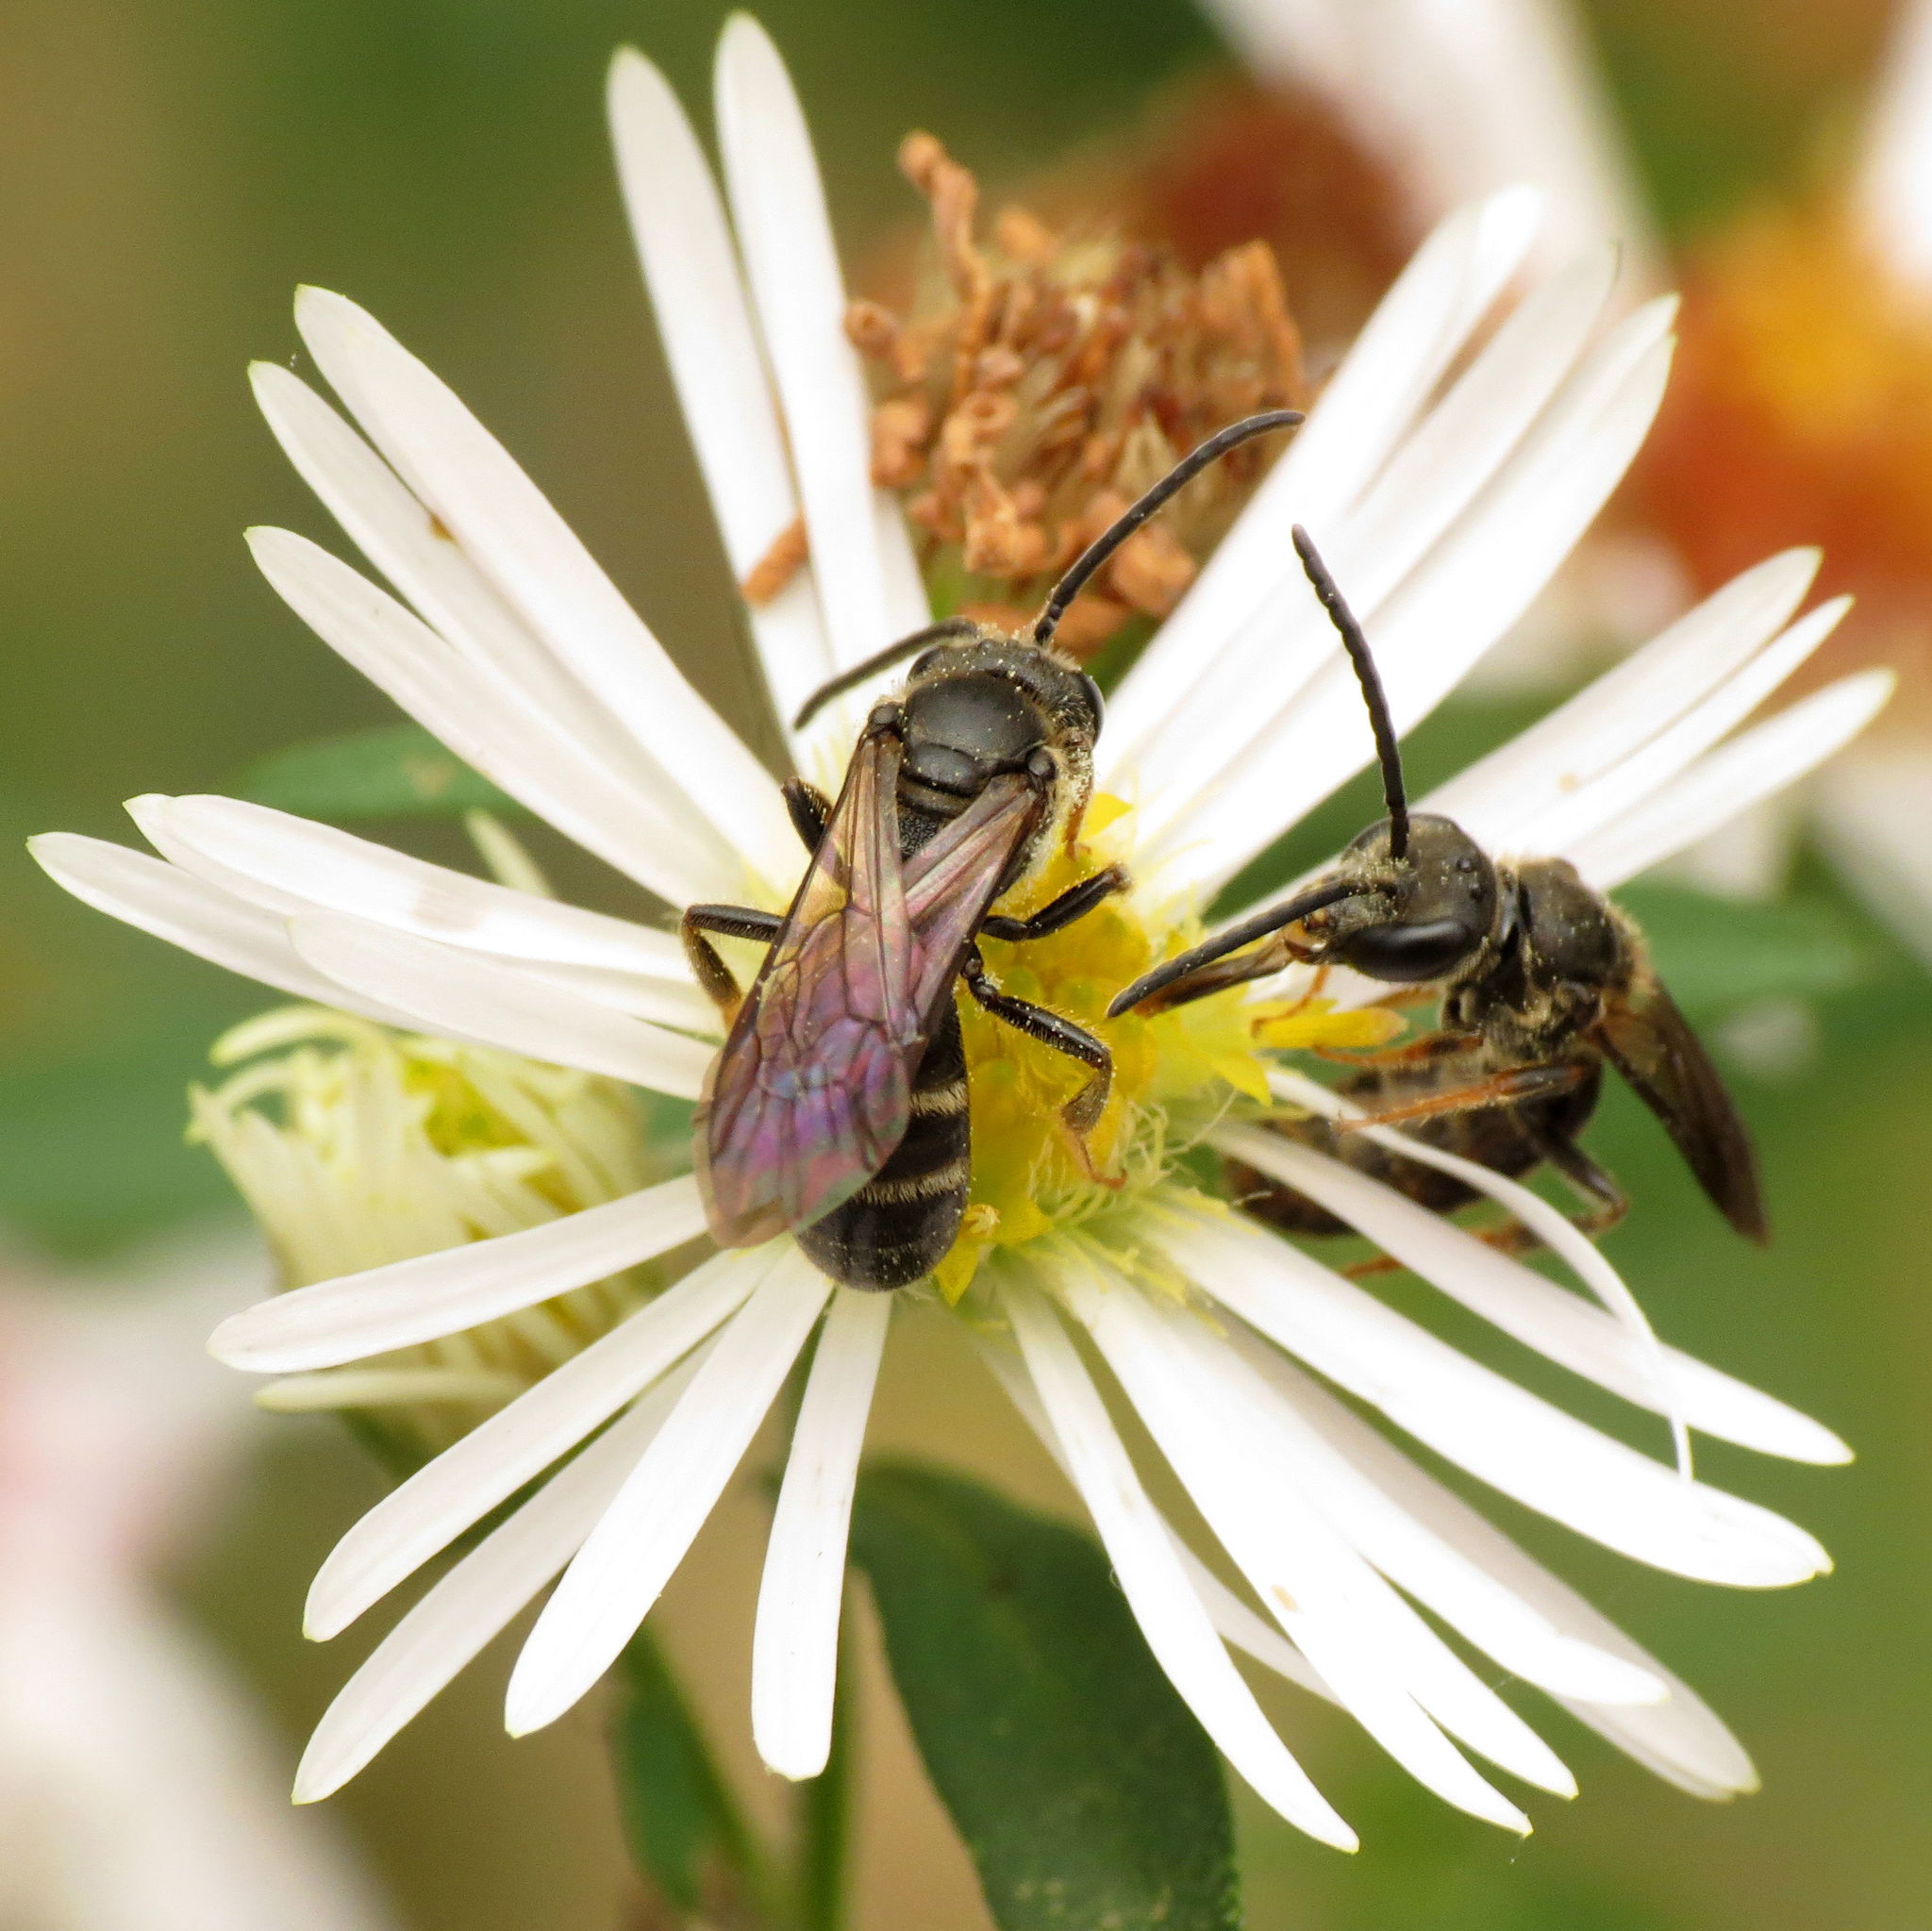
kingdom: Animalia
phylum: Arthropoda
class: Insecta
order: Hymenoptera
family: Halictidae
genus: Lasioglossum
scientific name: Lasioglossum fuscipenne
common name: Brown-winged sweat bee
